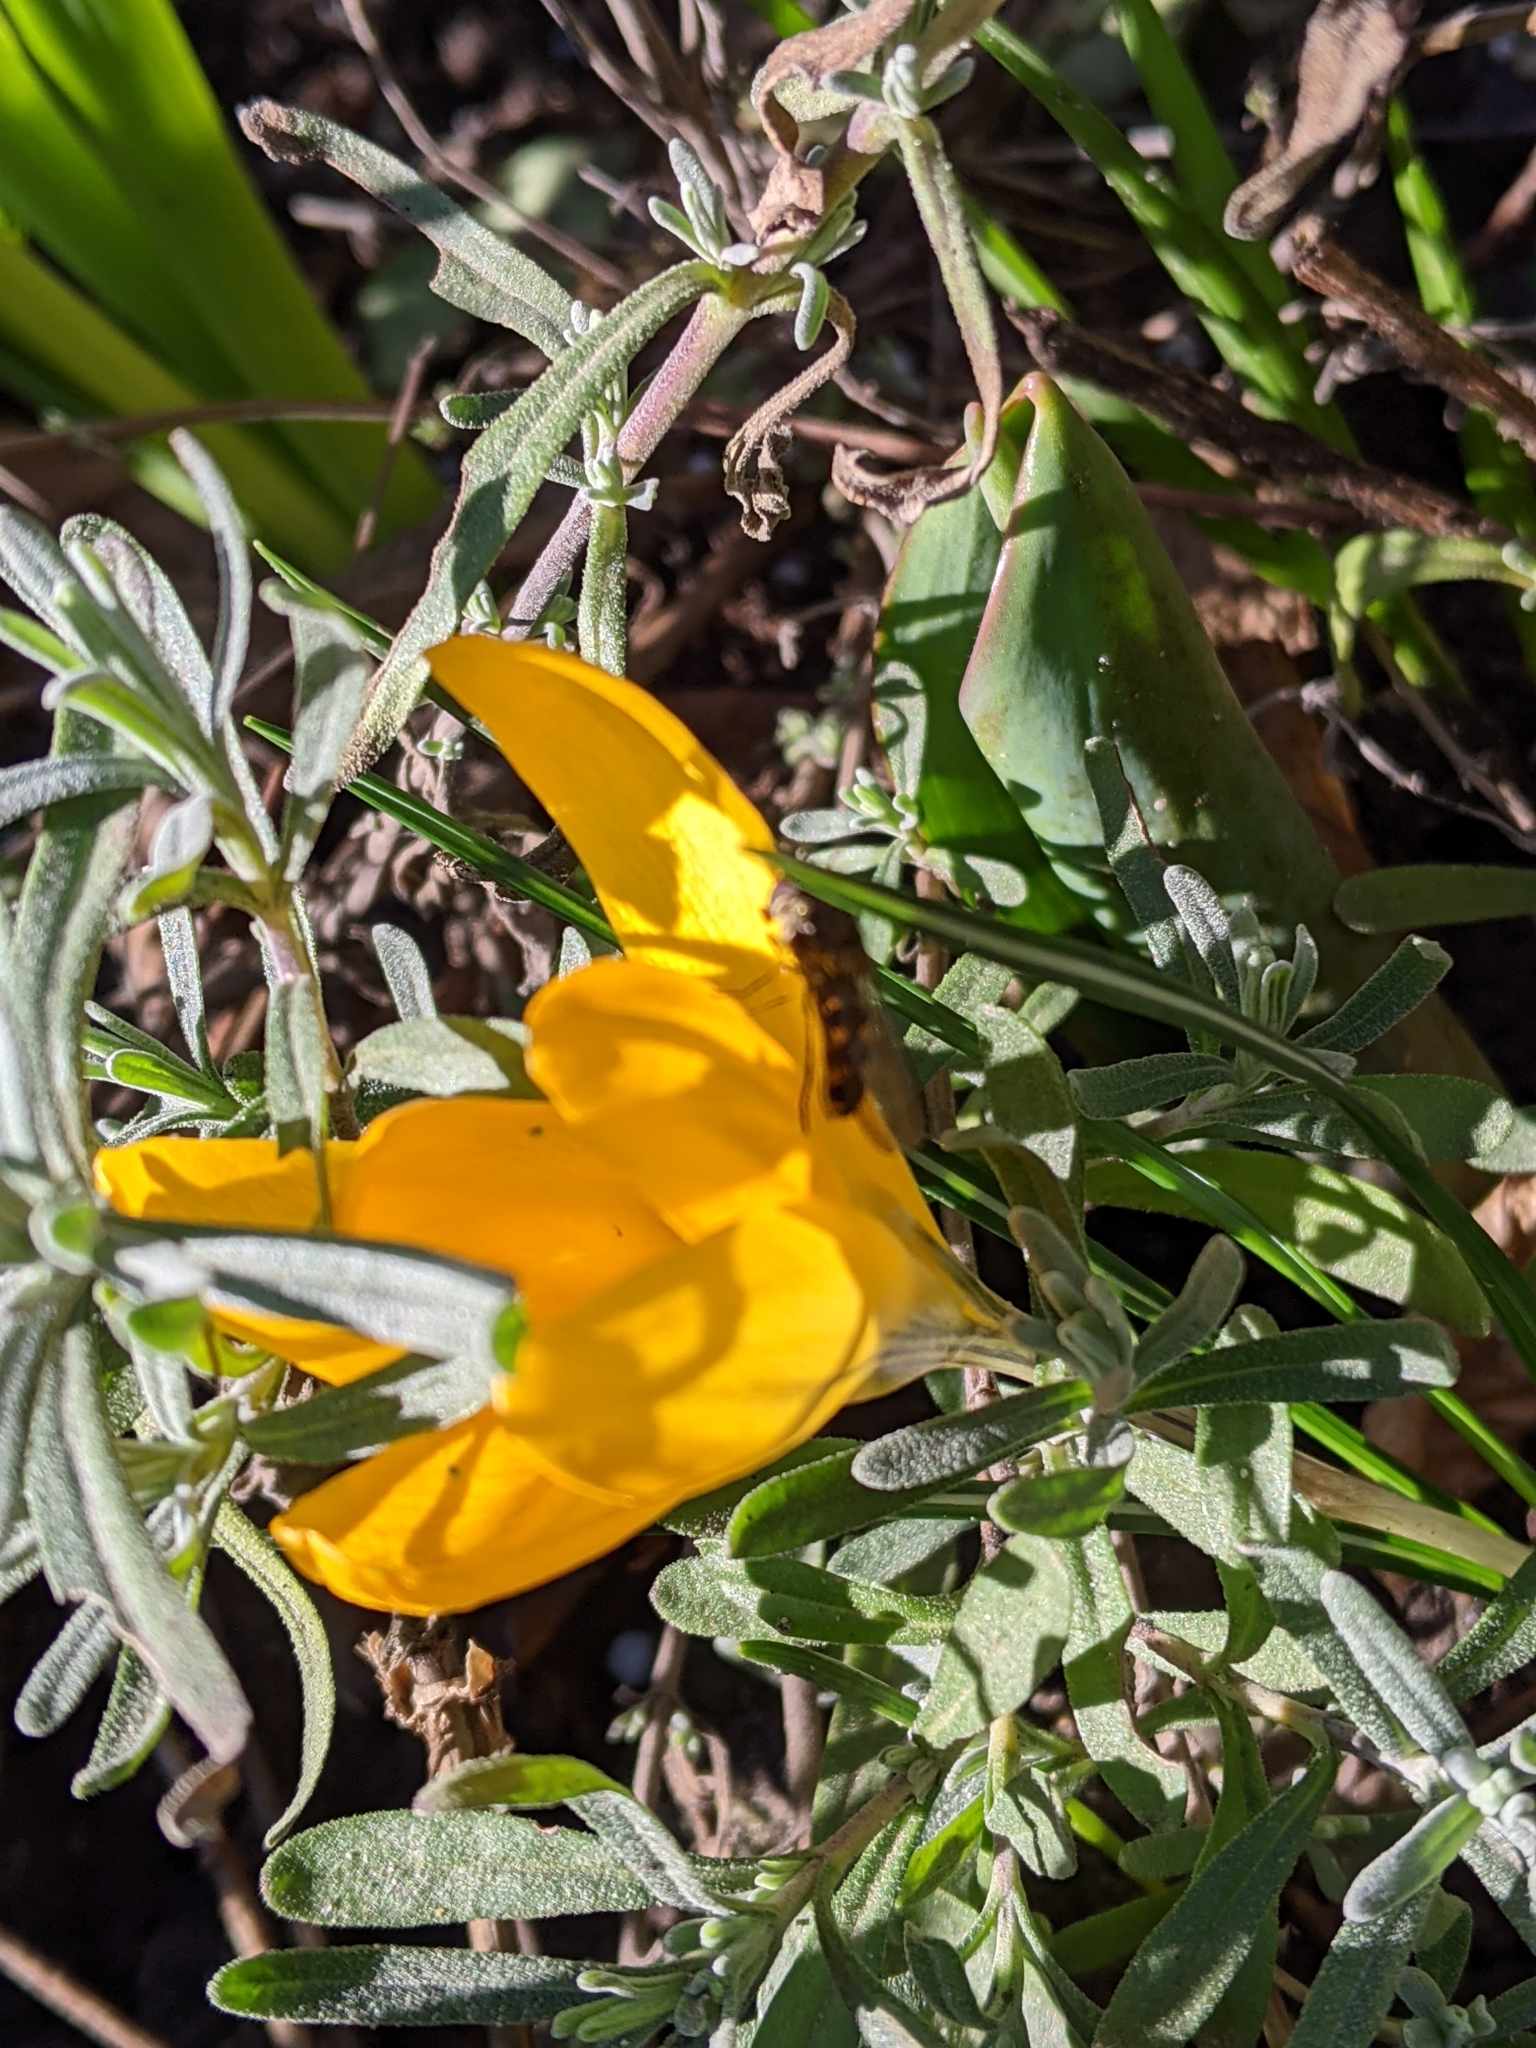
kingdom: Animalia
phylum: Arthropoda
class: Insecta
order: Diptera
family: Syrphidae
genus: Meliscaeva
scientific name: Meliscaeva auricollis
